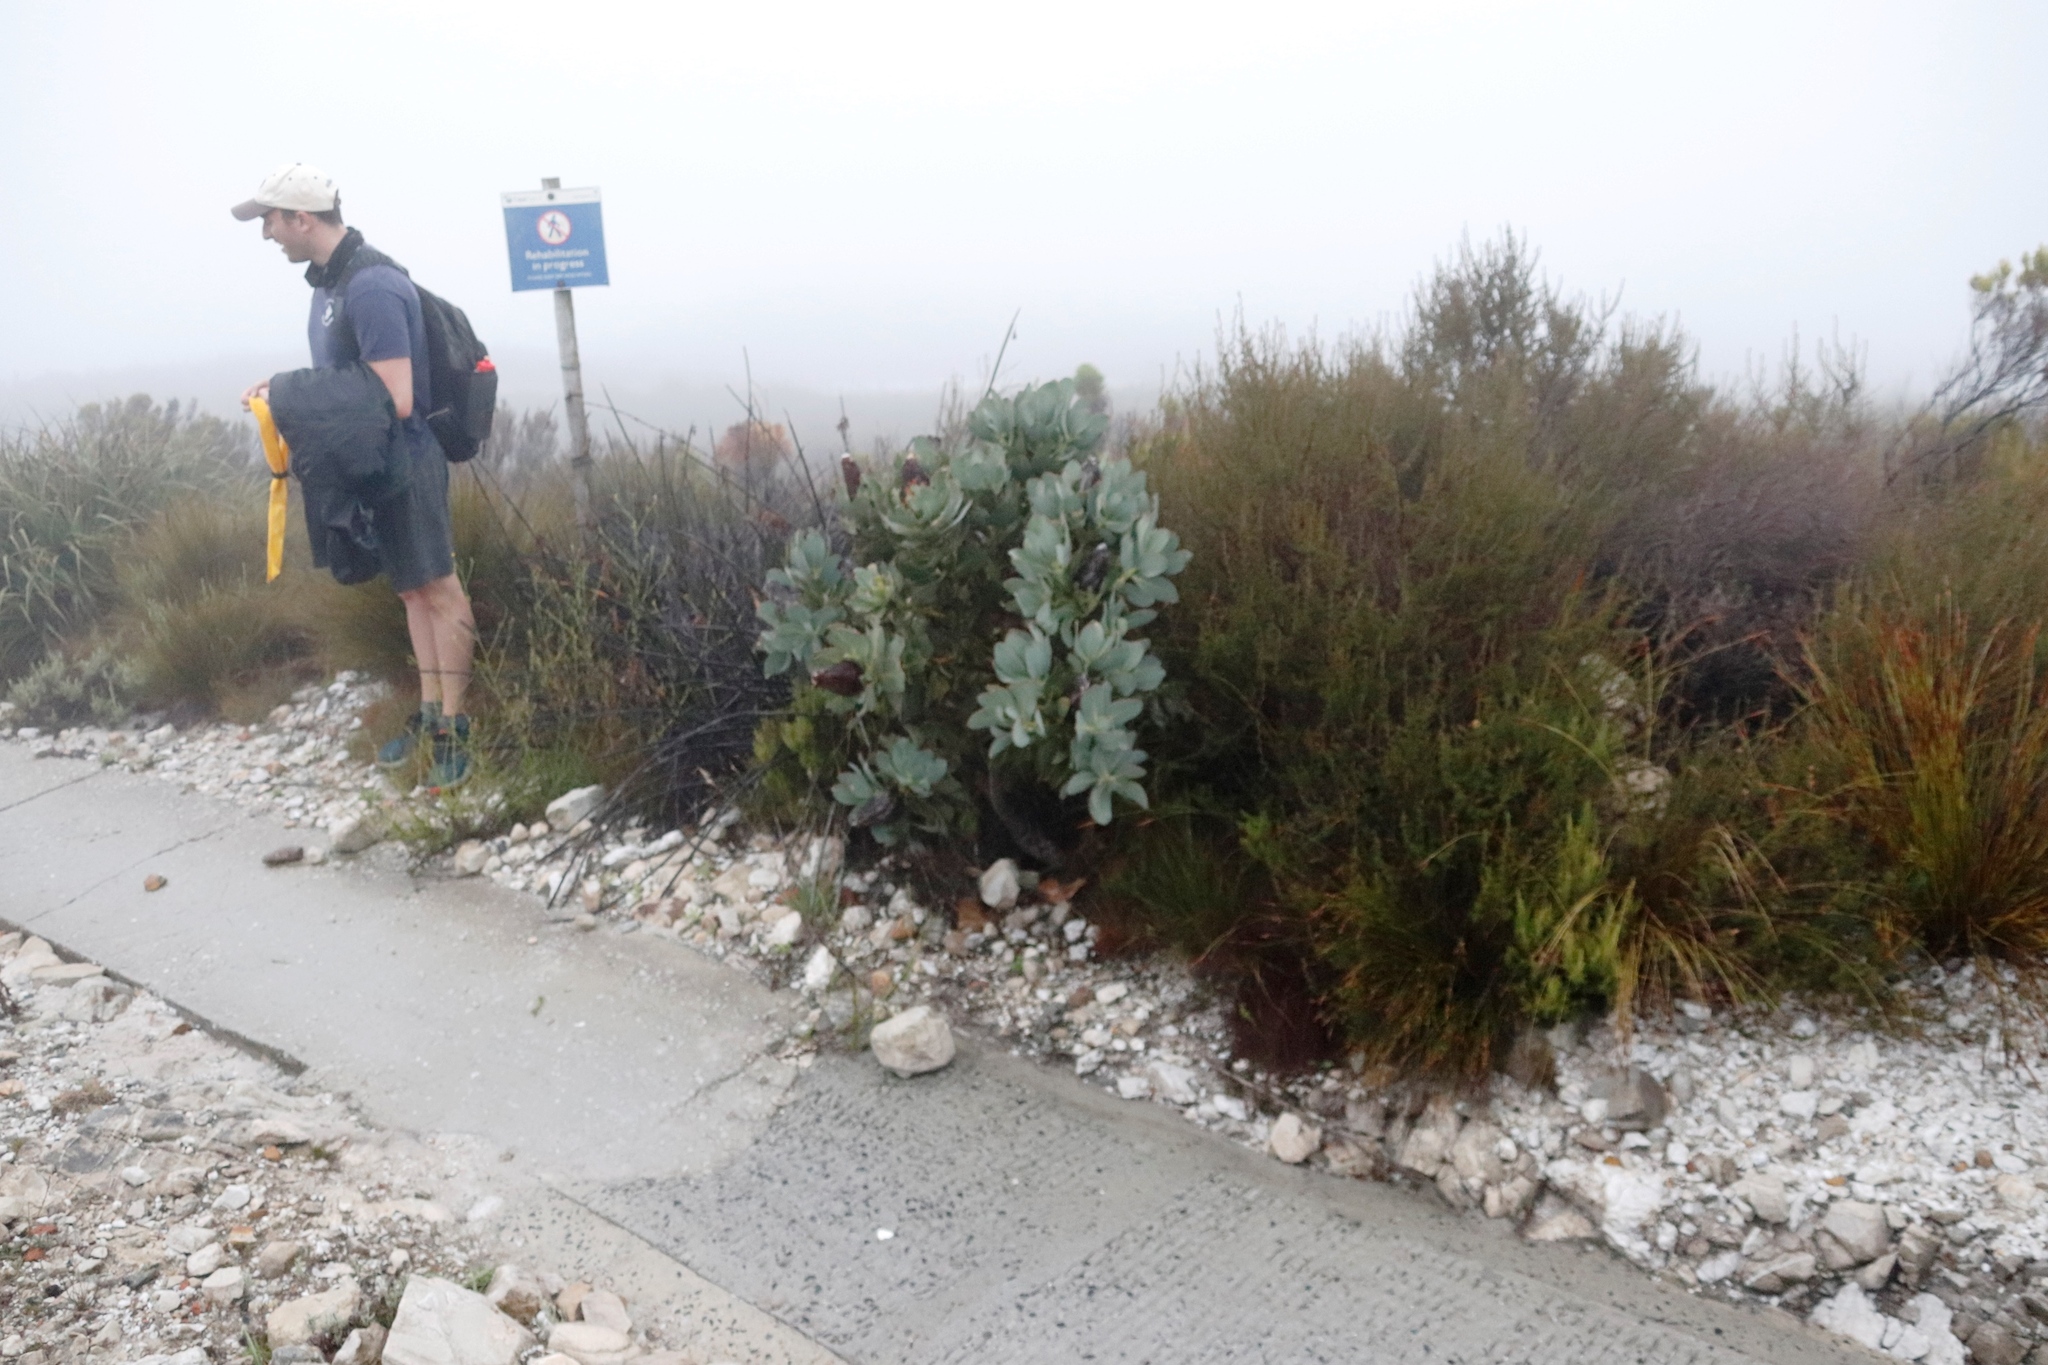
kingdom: Plantae
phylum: Tracheophyta
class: Magnoliopsida
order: Proteales
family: Proteaceae
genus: Protea
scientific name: Protea grandiceps
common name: Red sugarbush
